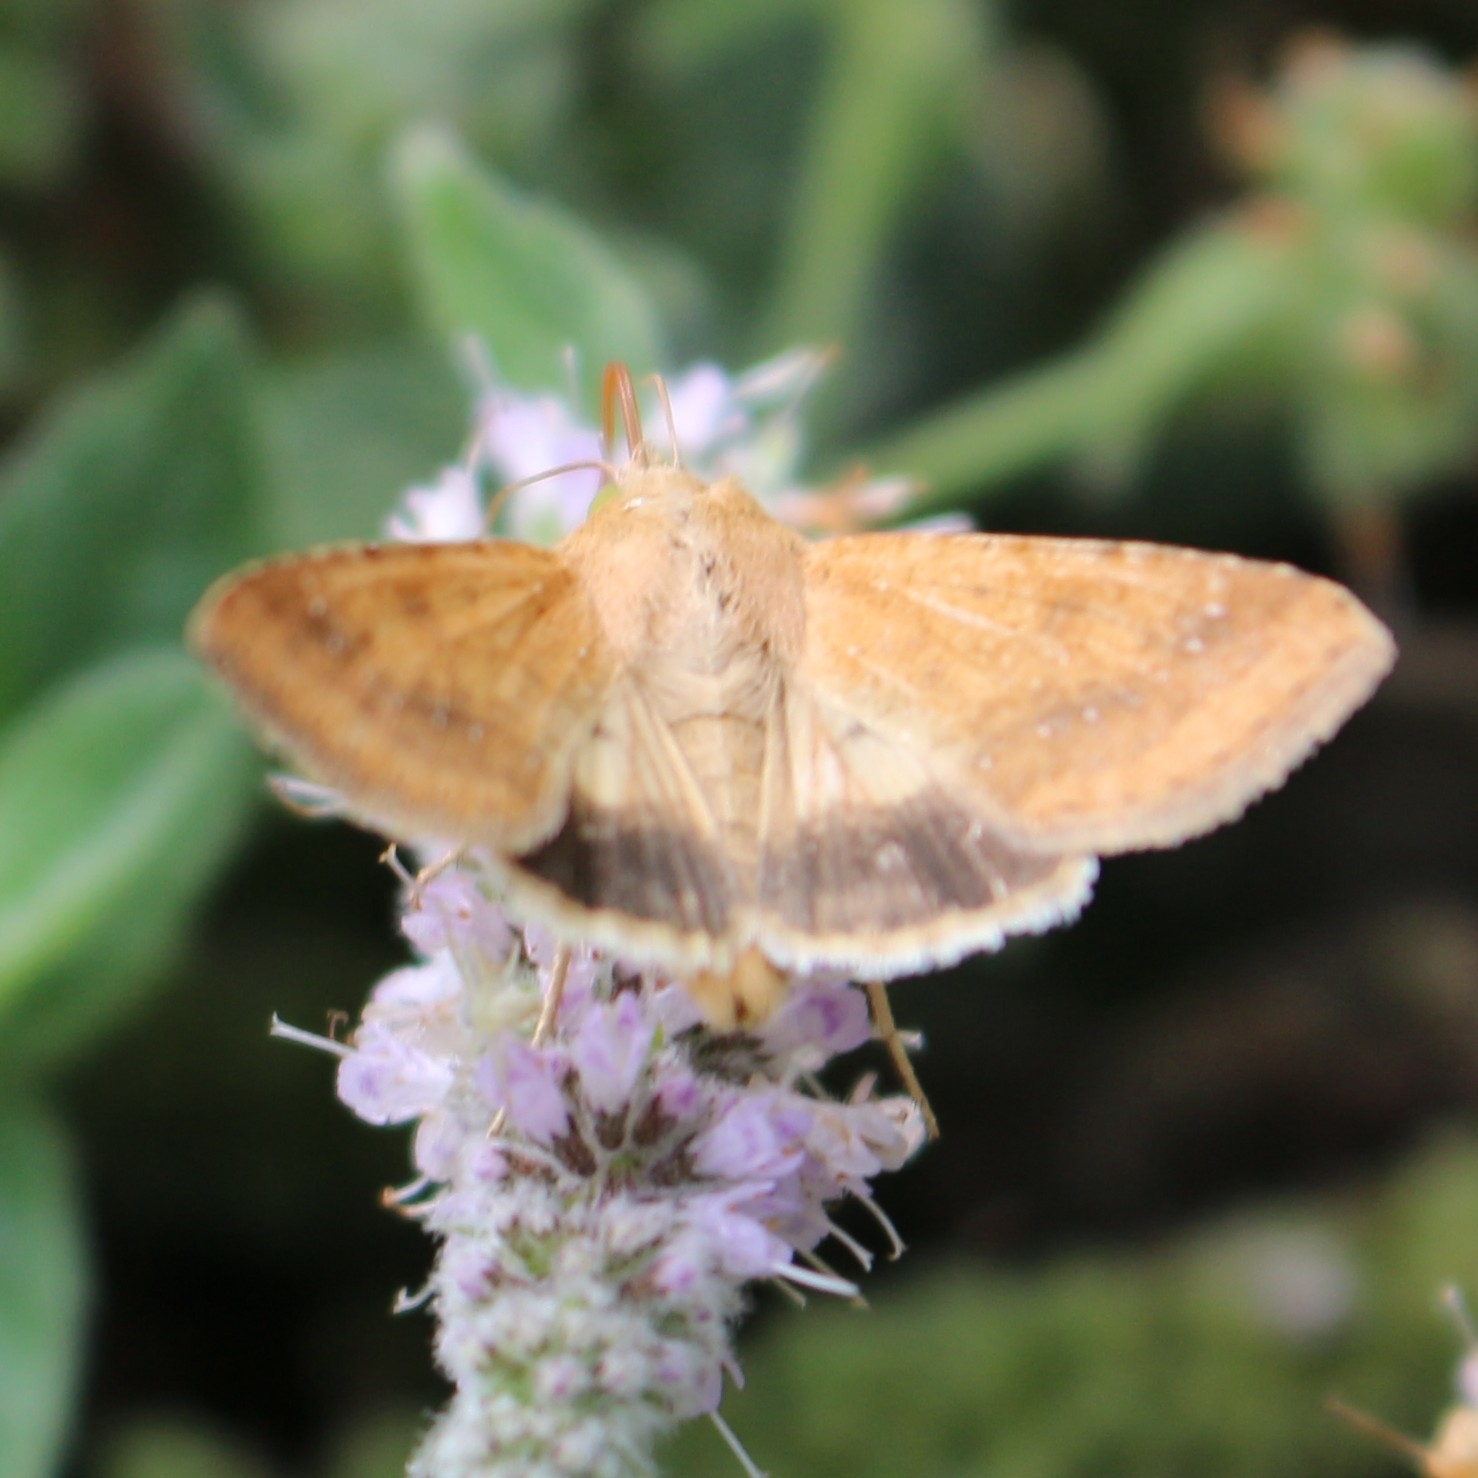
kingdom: Animalia
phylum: Arthropoda
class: Insecta
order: Lepidoptera
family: Noctuidae
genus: Helicoverpa
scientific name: Helicoverpa armigera
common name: Cotton bollworm
